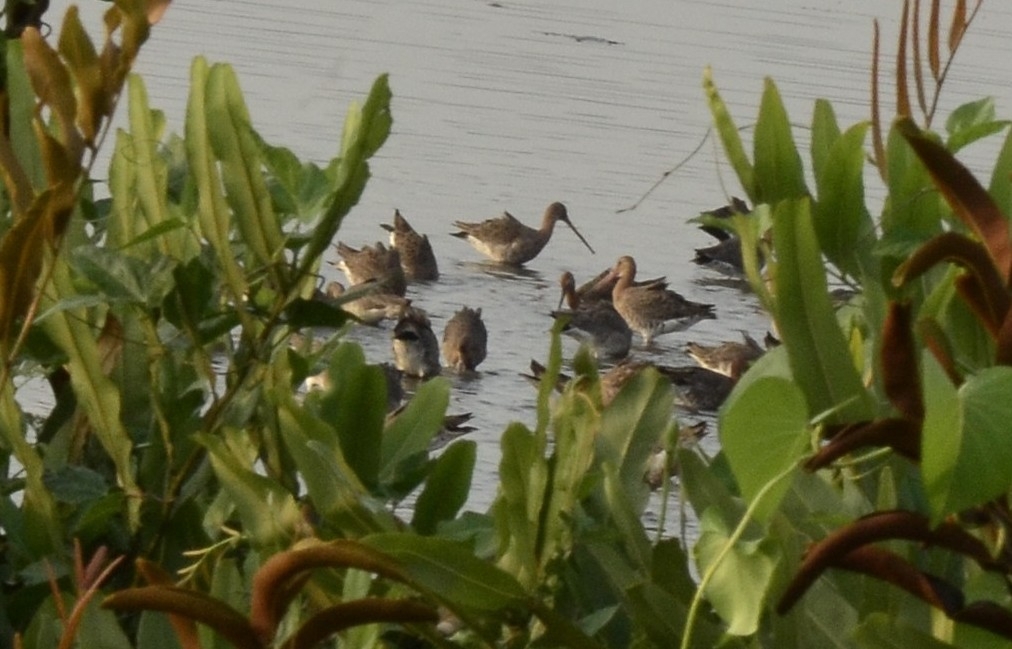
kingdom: Animalia
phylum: Chordata
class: Aves
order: Charadriiformes
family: Scolopacidae
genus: Limosa
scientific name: Limosa limosa
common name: Black-tailed godwit
